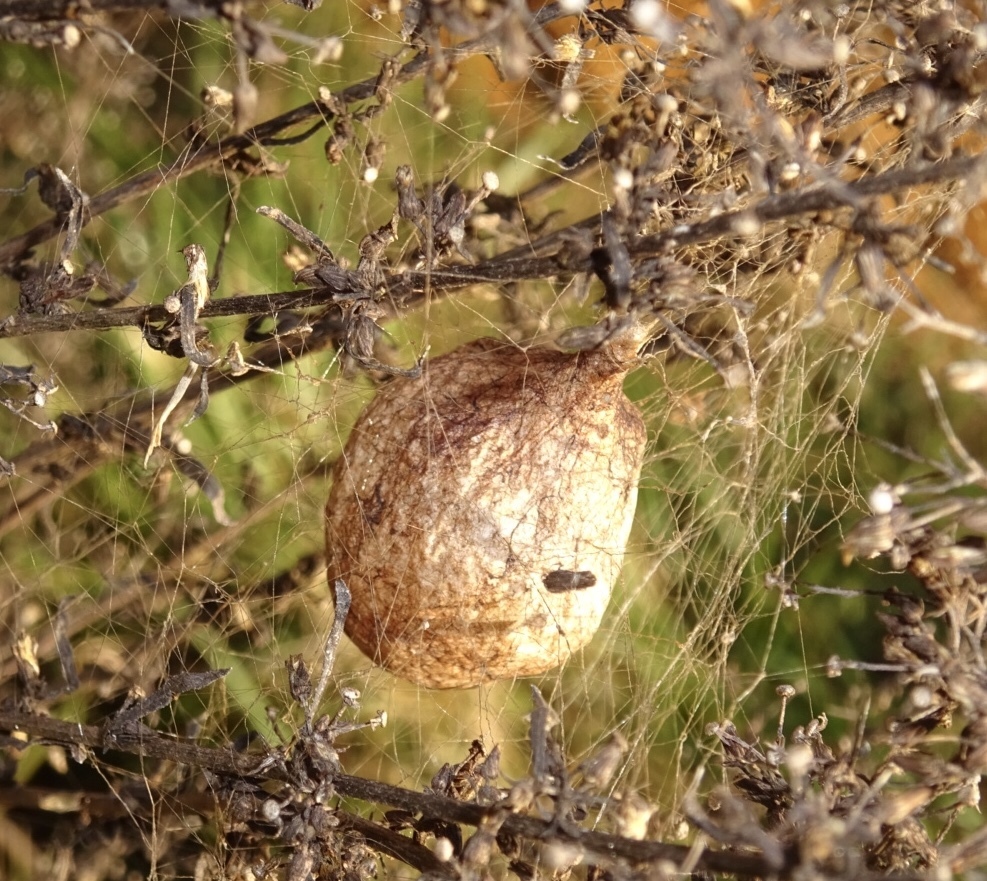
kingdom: Animalia
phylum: Arthropoda
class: Arachnida
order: Araneae
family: Araneidae
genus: Argiope
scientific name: Argiope aurantia
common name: Orb weavers
